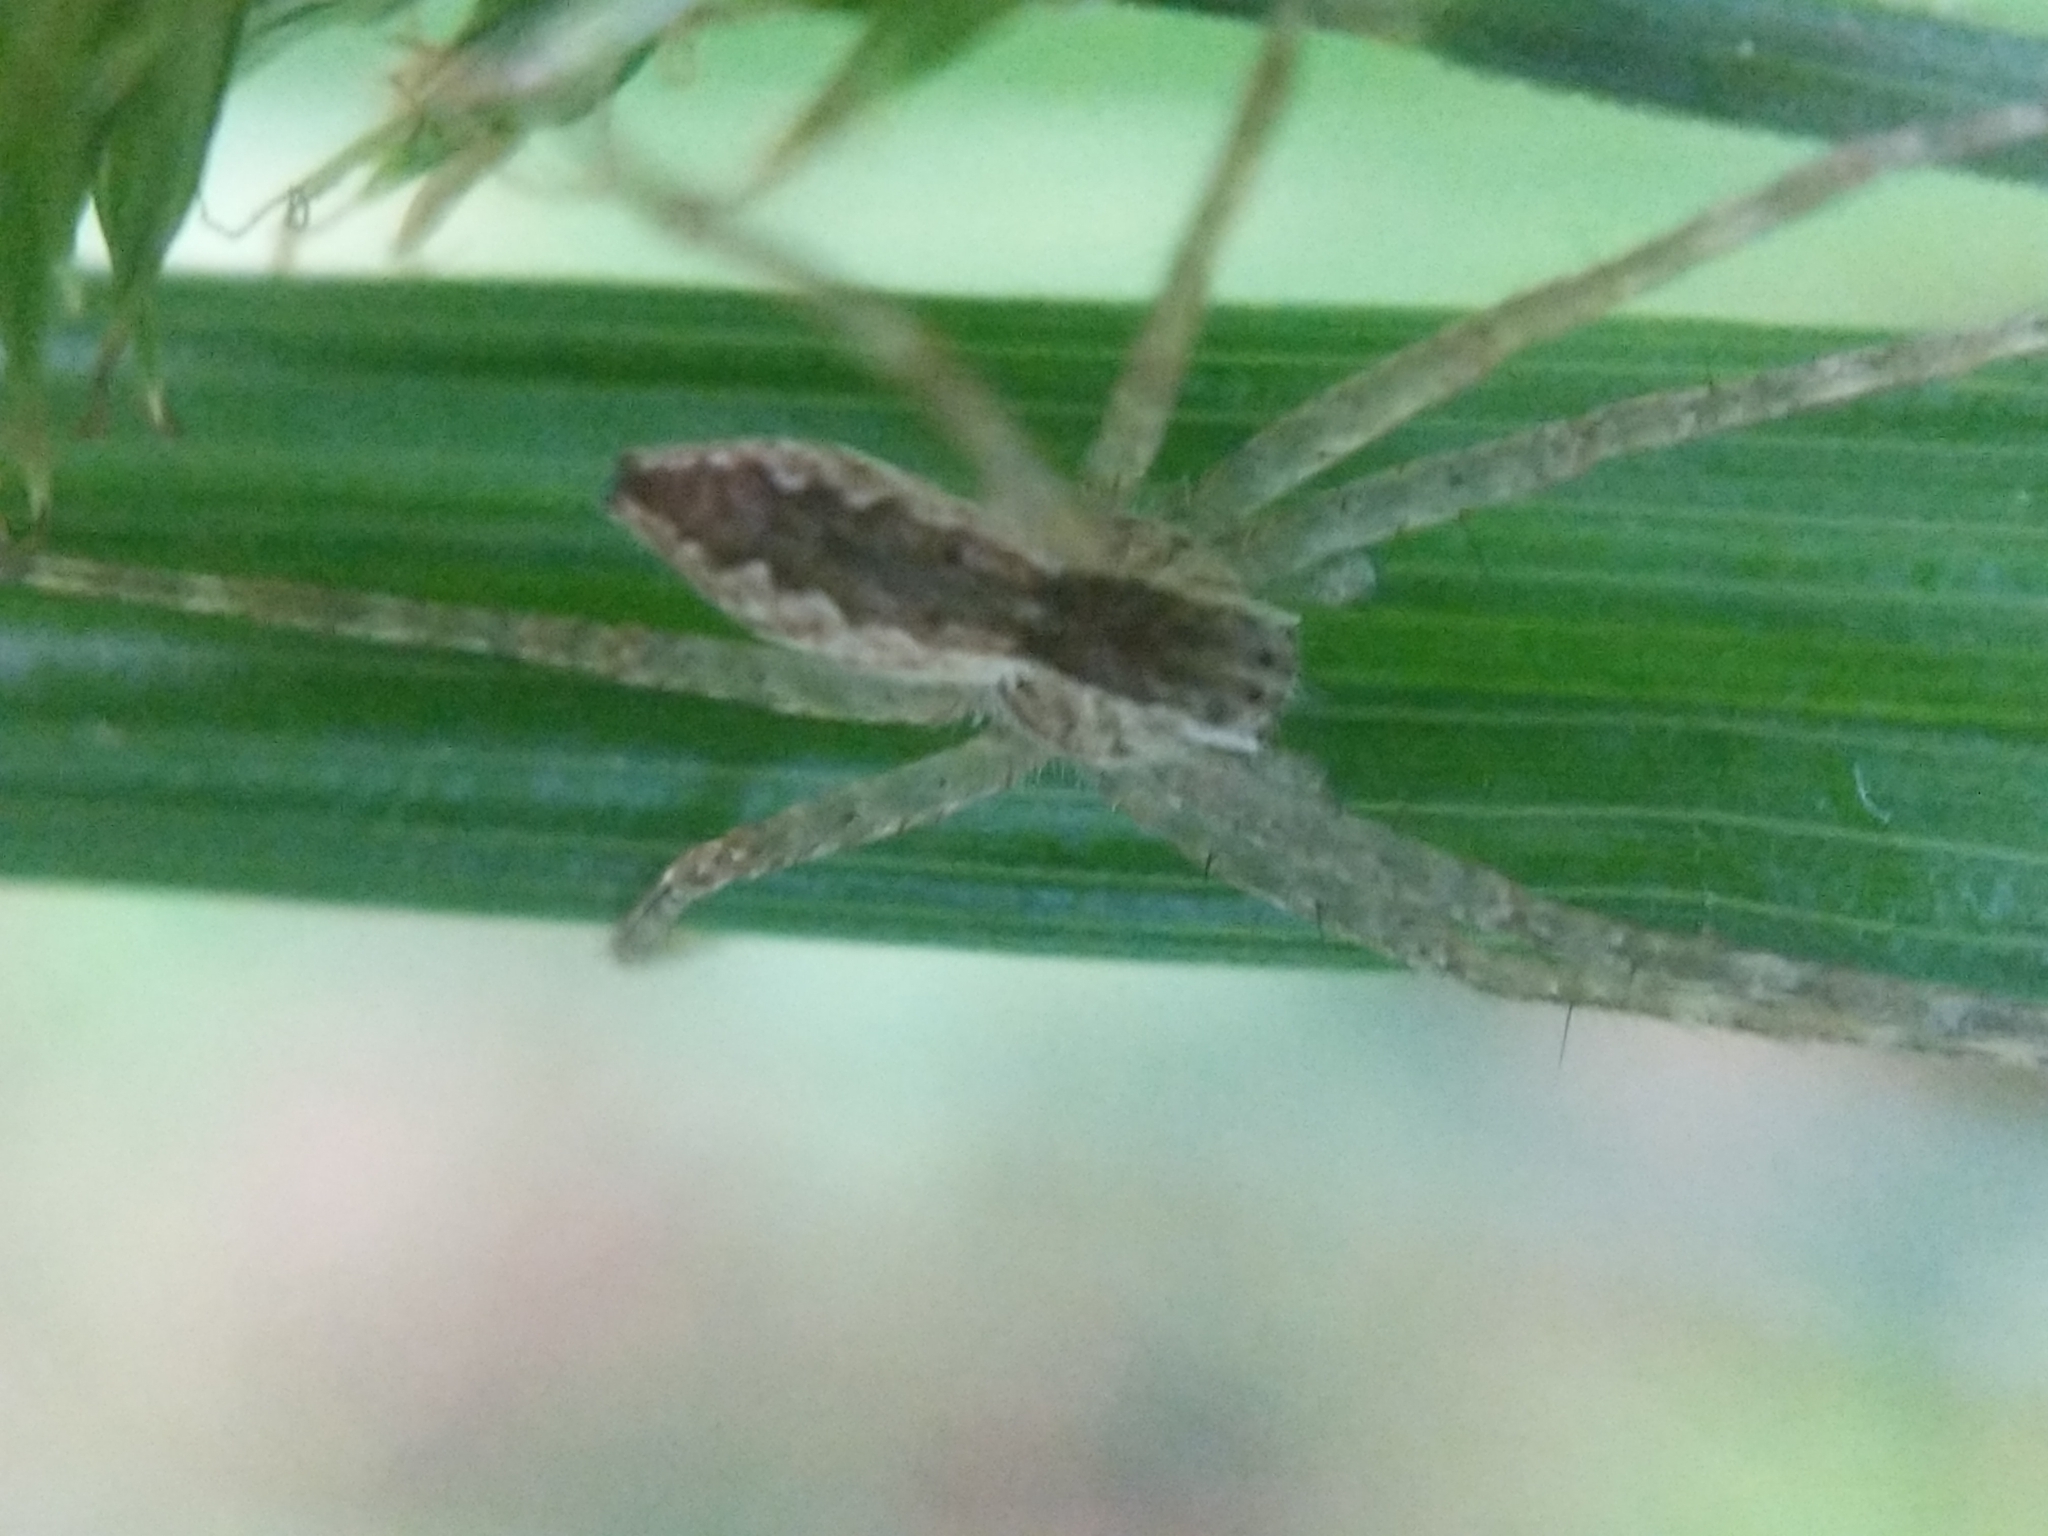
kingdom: Animalia
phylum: Arthropoda
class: Arachnida
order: Araneae
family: Pisauridae
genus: Pisaurina
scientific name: Pisaurina mira
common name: American nursery web spider
